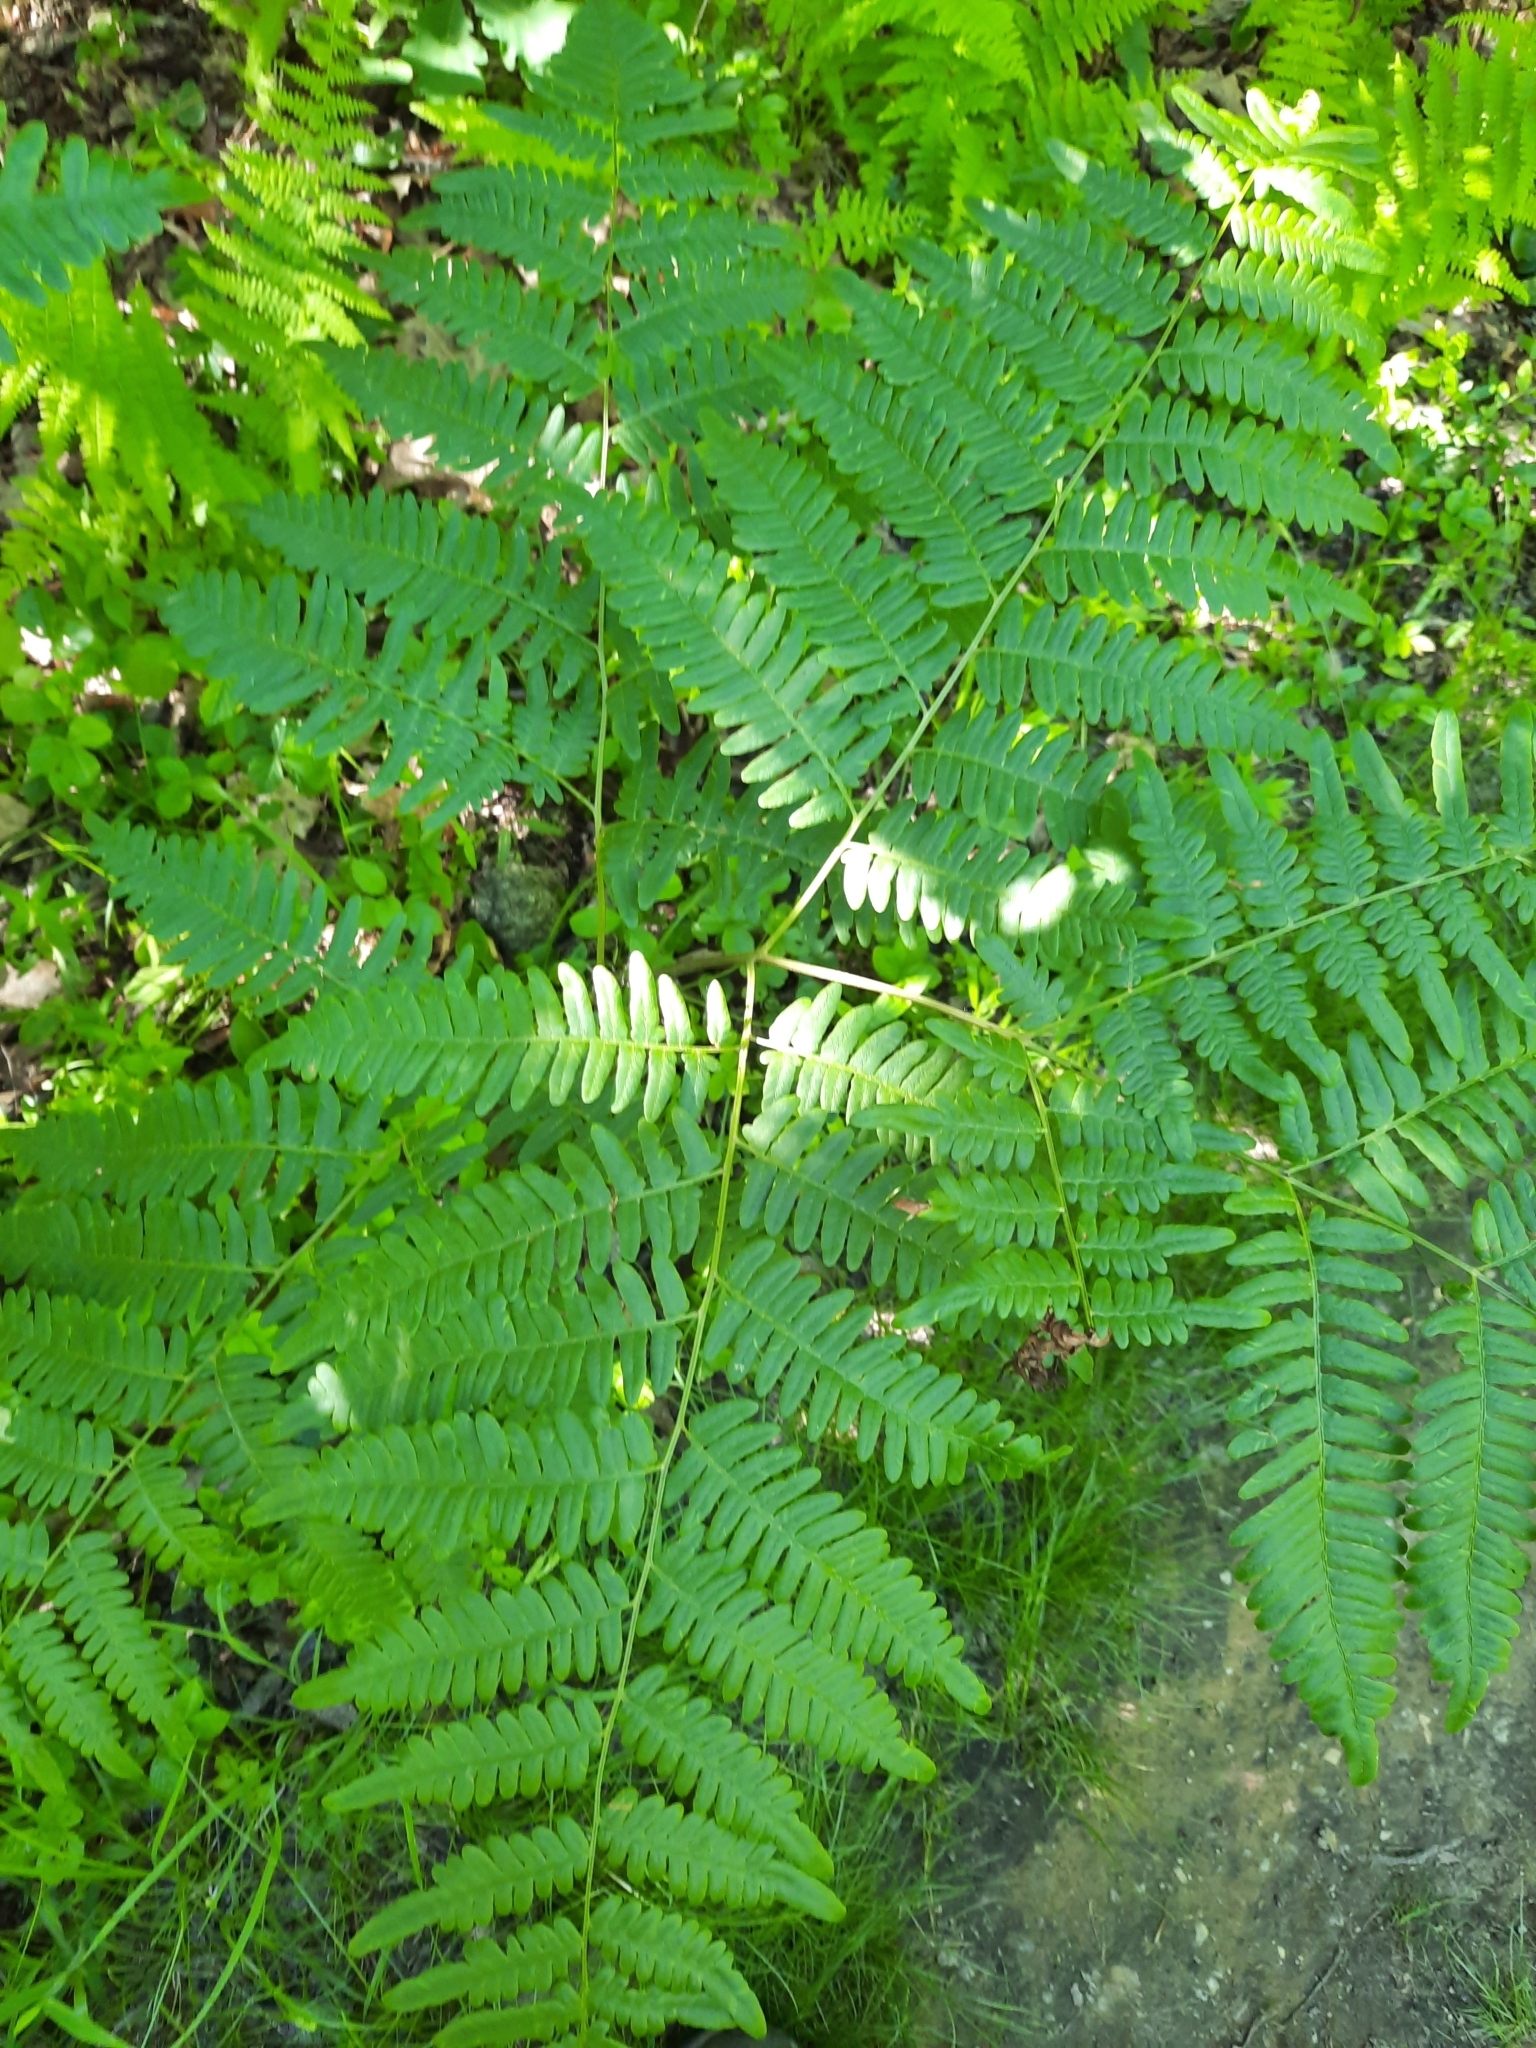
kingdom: Plantae
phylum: Tracheophyta
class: Polypodiopsida
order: Polypodiales
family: Dennstaedtiaceae
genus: Pteridium
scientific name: Pteridium aquilinum
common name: Bracken
